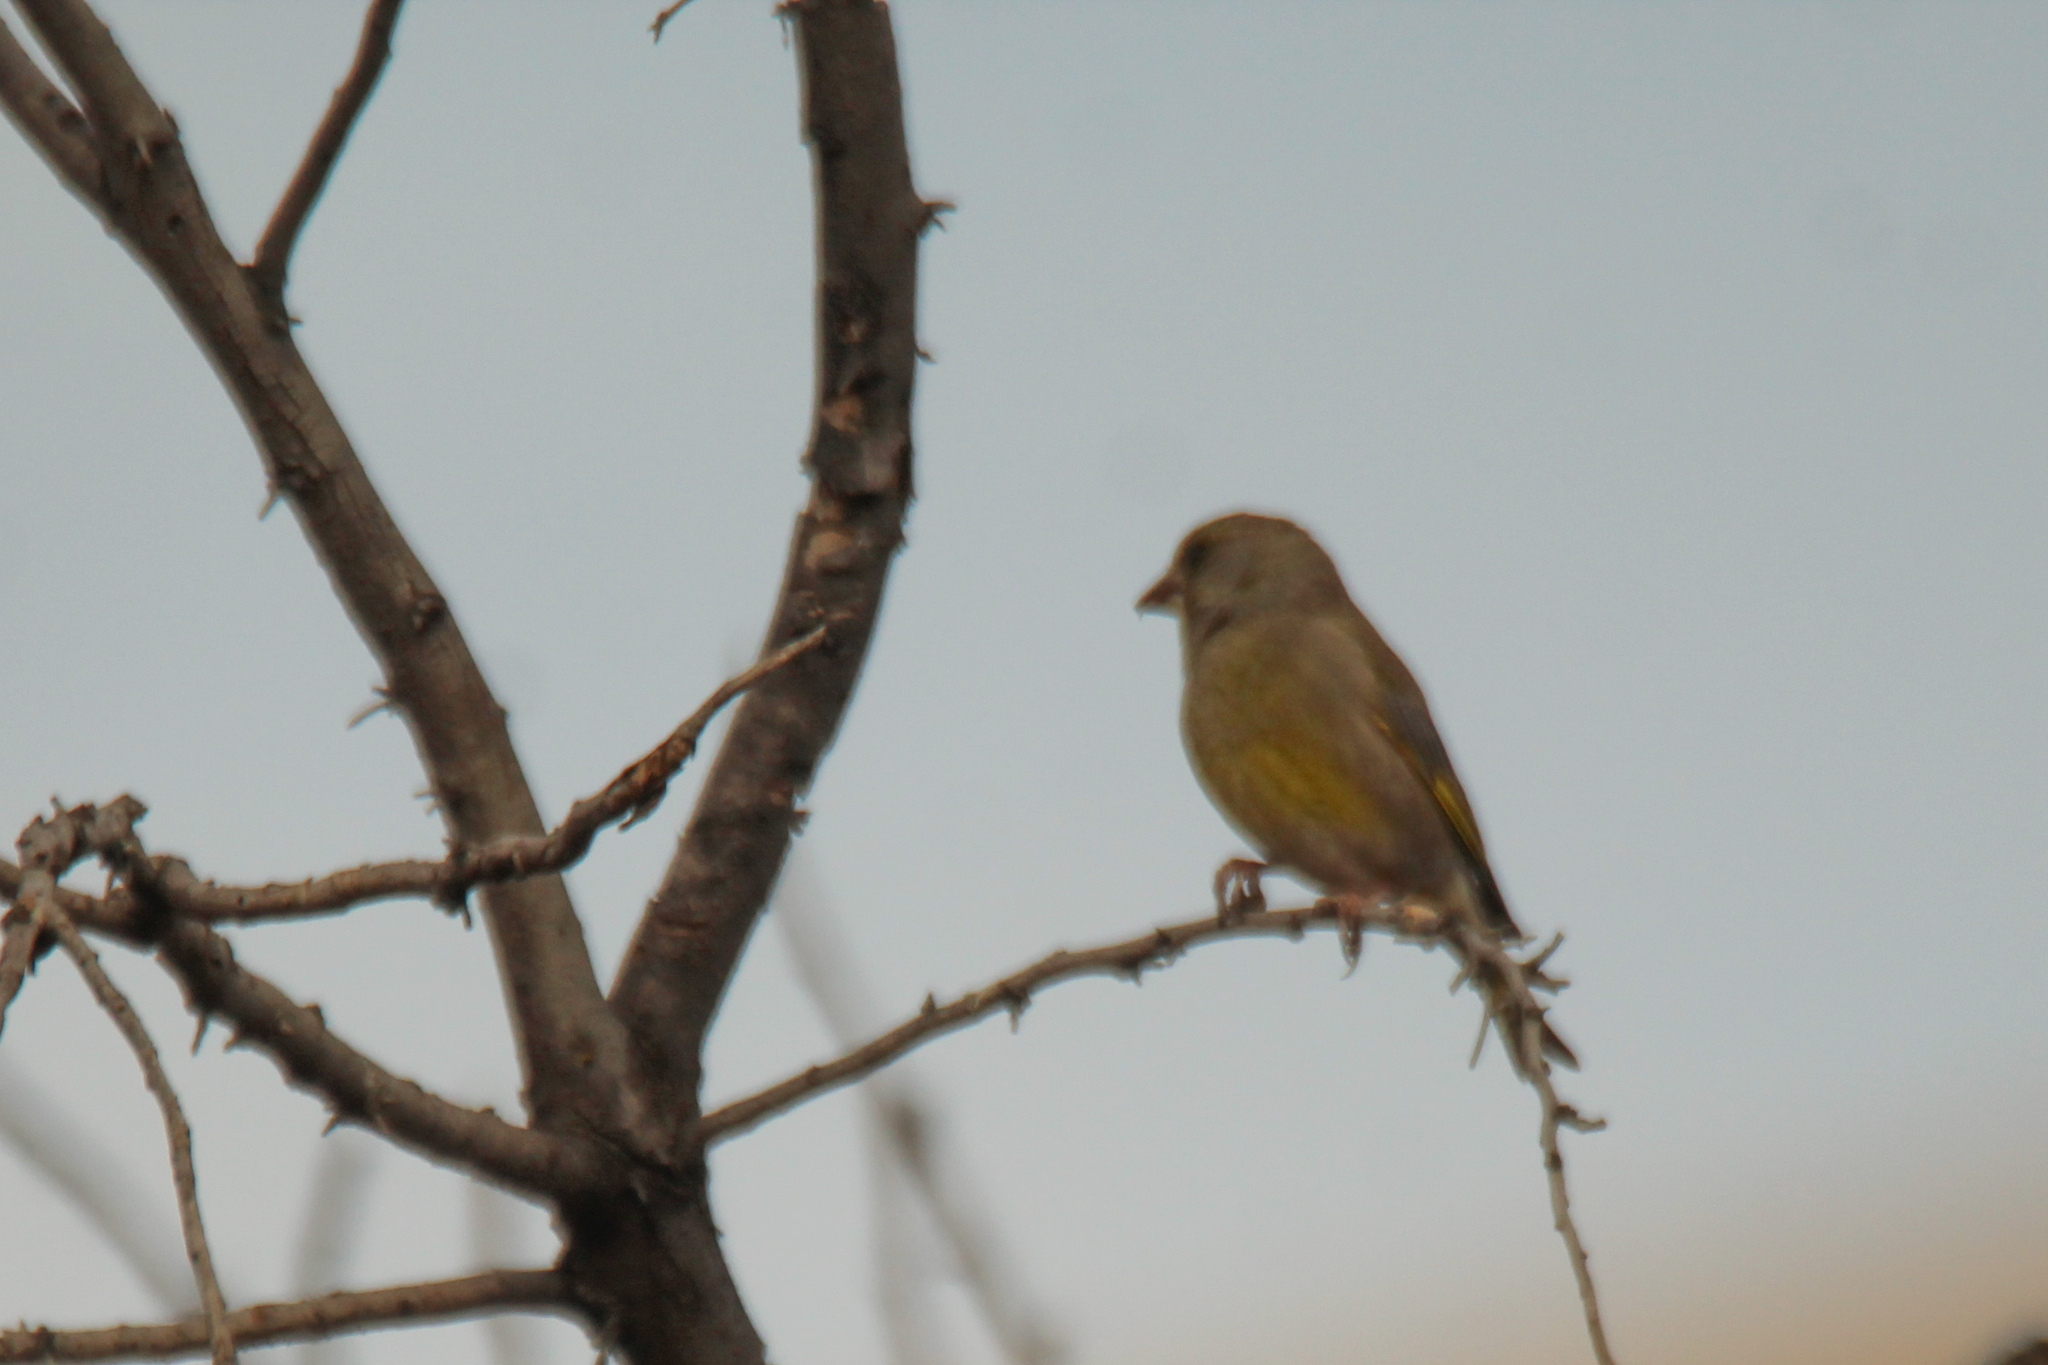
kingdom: Plantae
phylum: Tracheophyta
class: Liliopsida
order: Poales
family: Poaceae
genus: Chloris
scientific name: Chloris chloris
